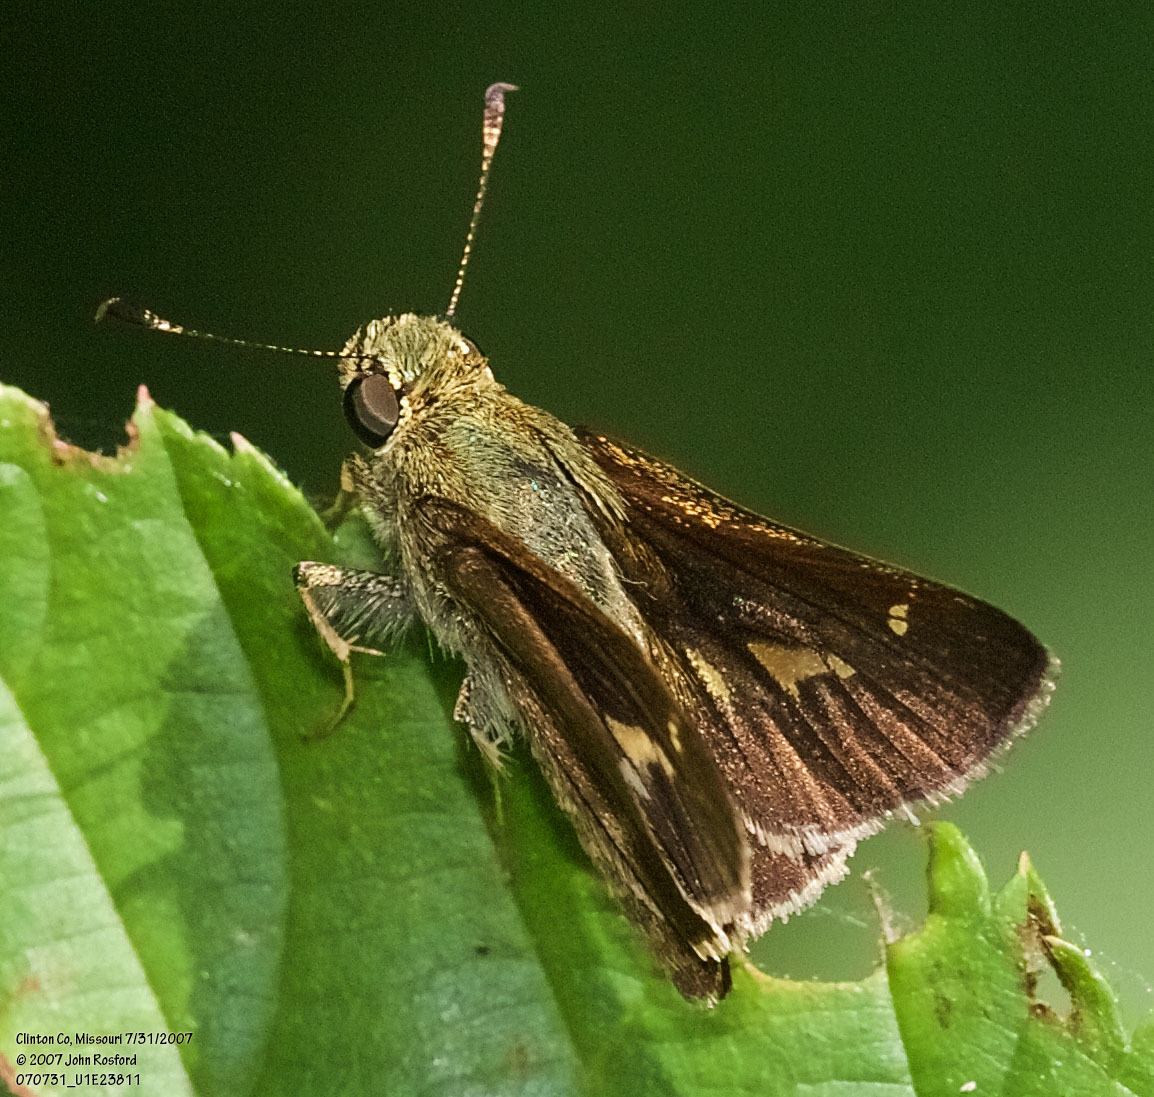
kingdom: Animalia
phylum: Arthropoda
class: Insecta
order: Lepidoptera
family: Hesperiidae
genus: Vernia
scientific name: Vernia verna
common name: Little glassywing
